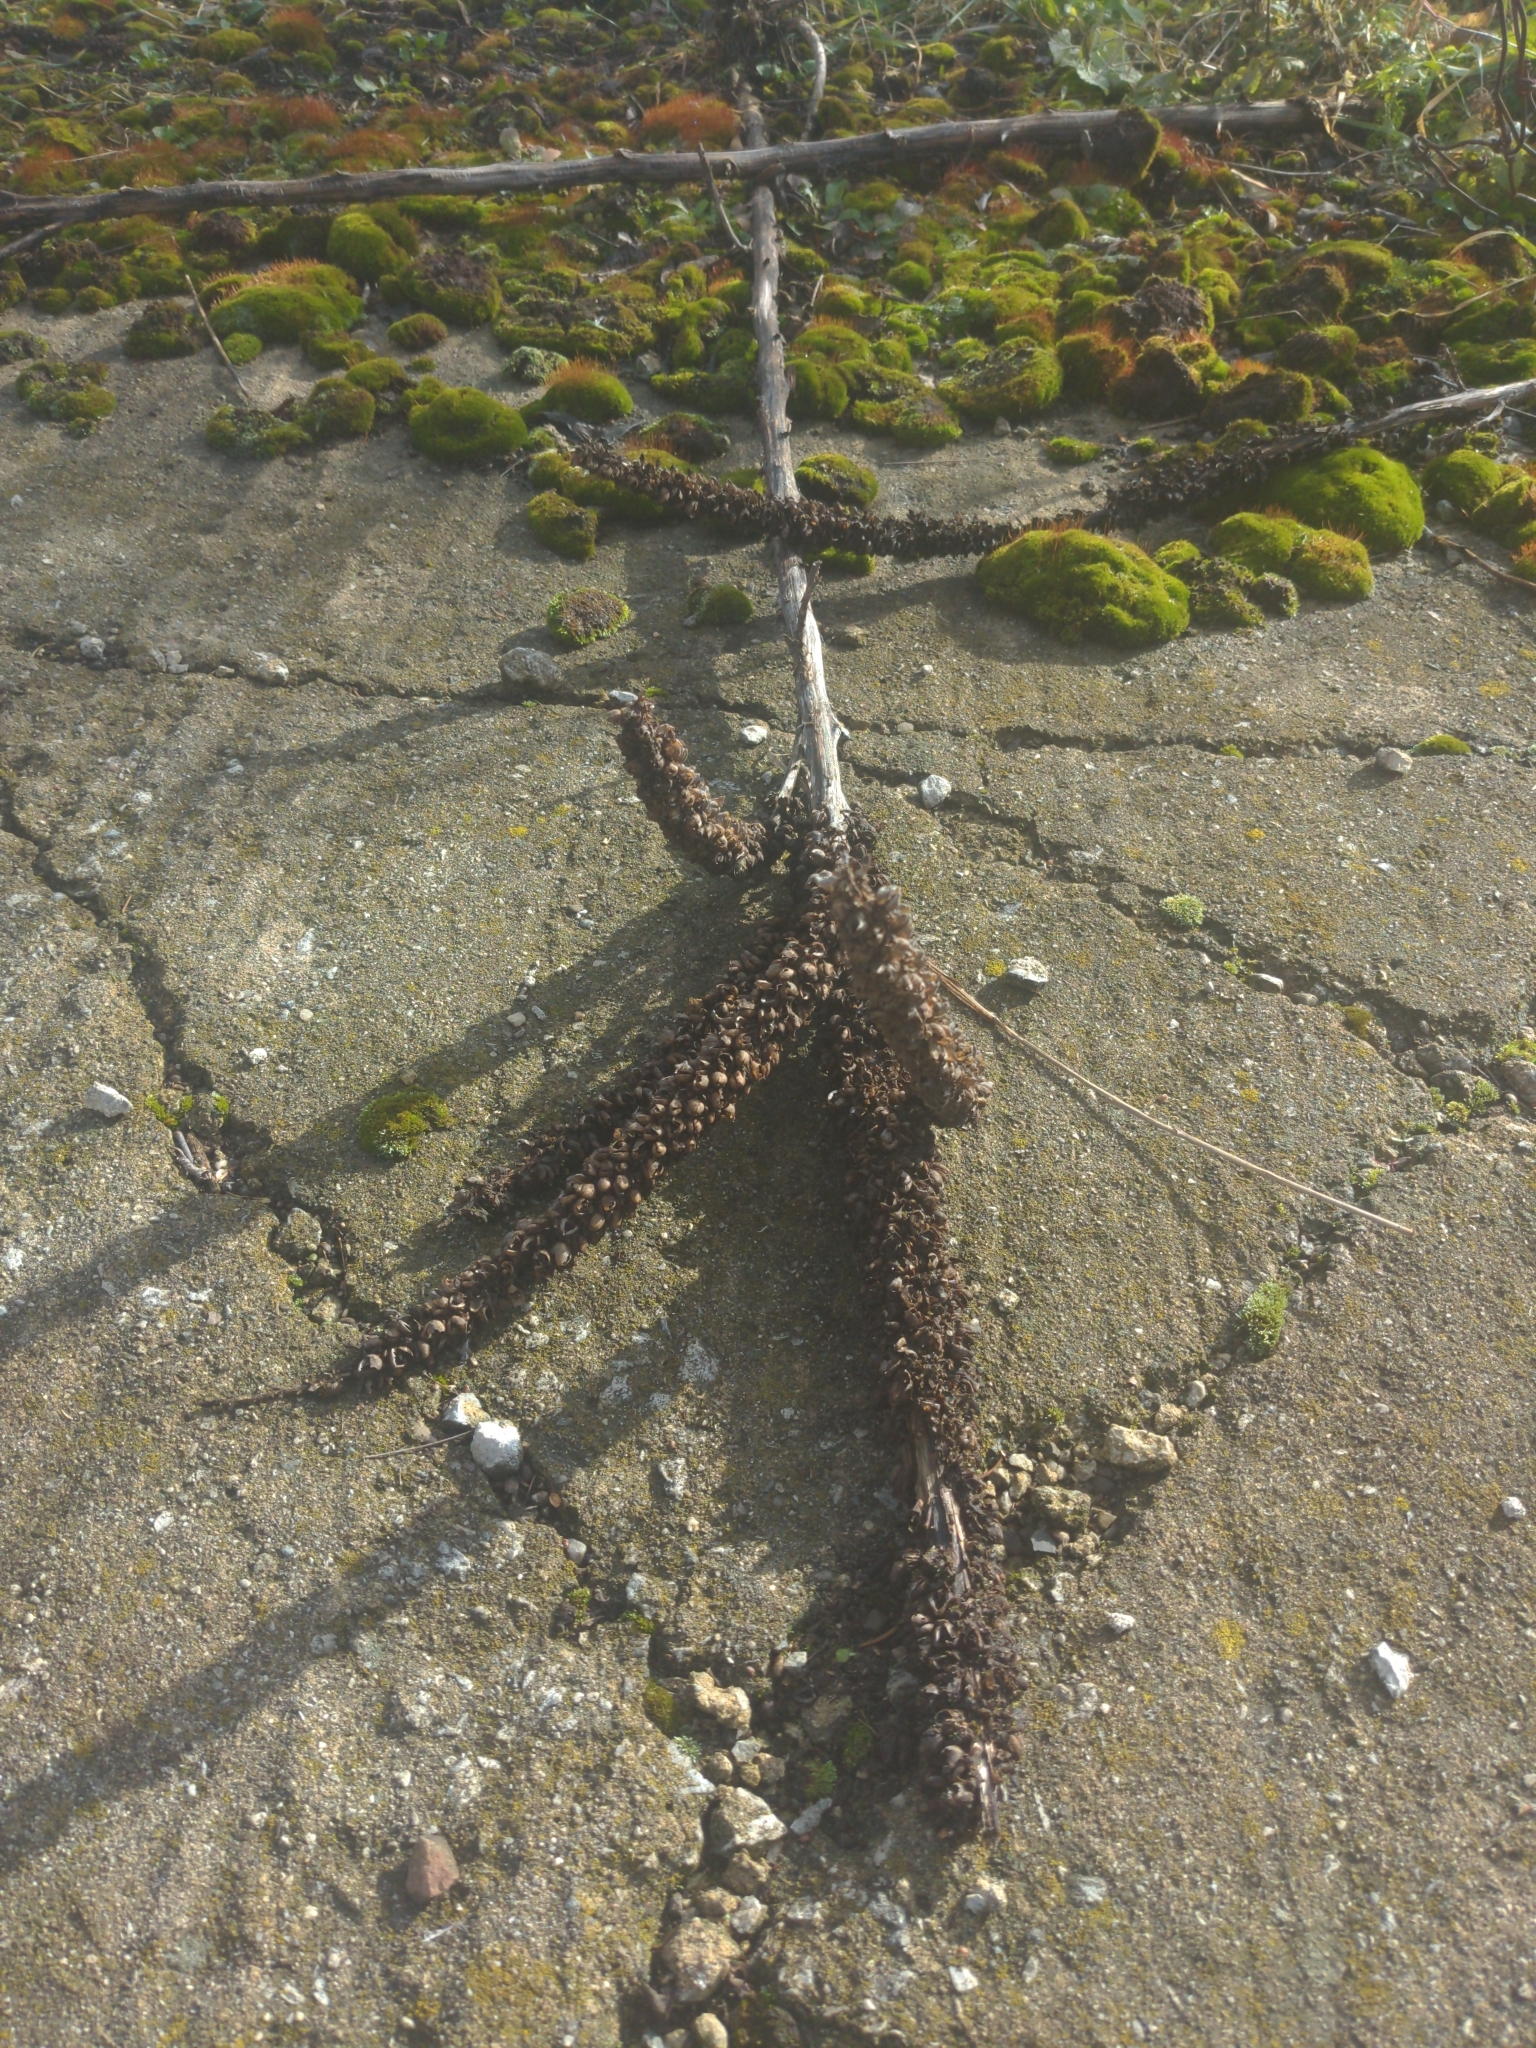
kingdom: Plantae
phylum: Tracheophyta
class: Magnoliopsida
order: Lamiales
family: Scrophulariaceae
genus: Verbascum
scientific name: Verbascum thapsus
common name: Common mullein
